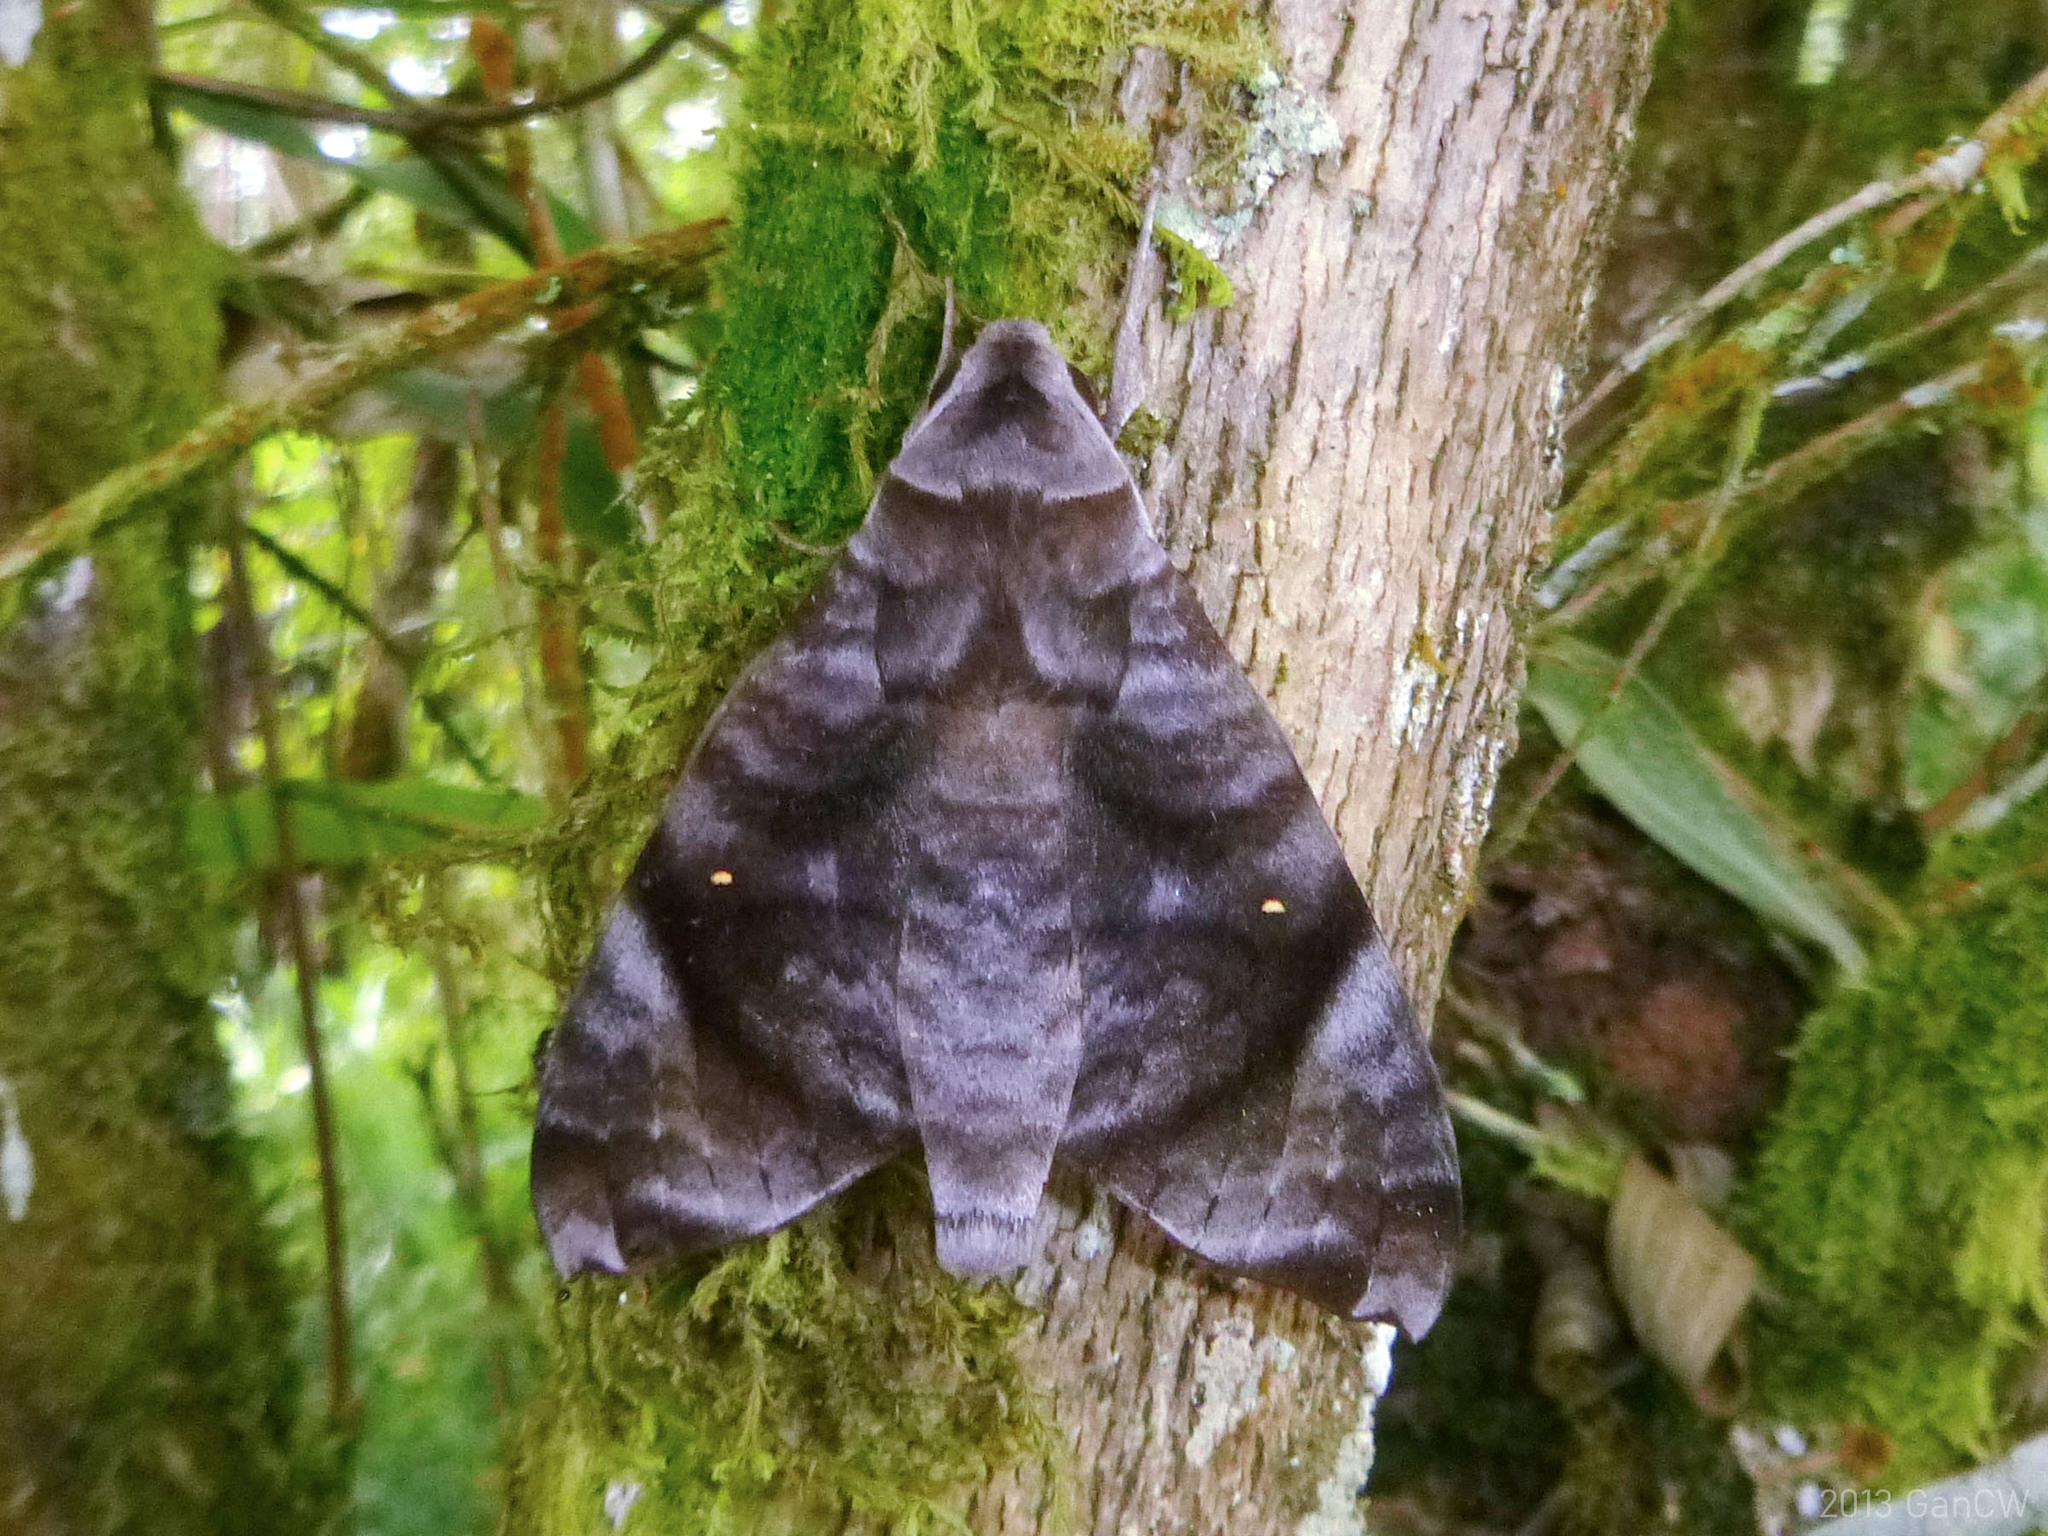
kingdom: Animalia
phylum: Arthropoda
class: Insecta
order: Lepidoptera
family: Sphingidae
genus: Acosmeryx
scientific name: Acosmeryx pseudonaga
